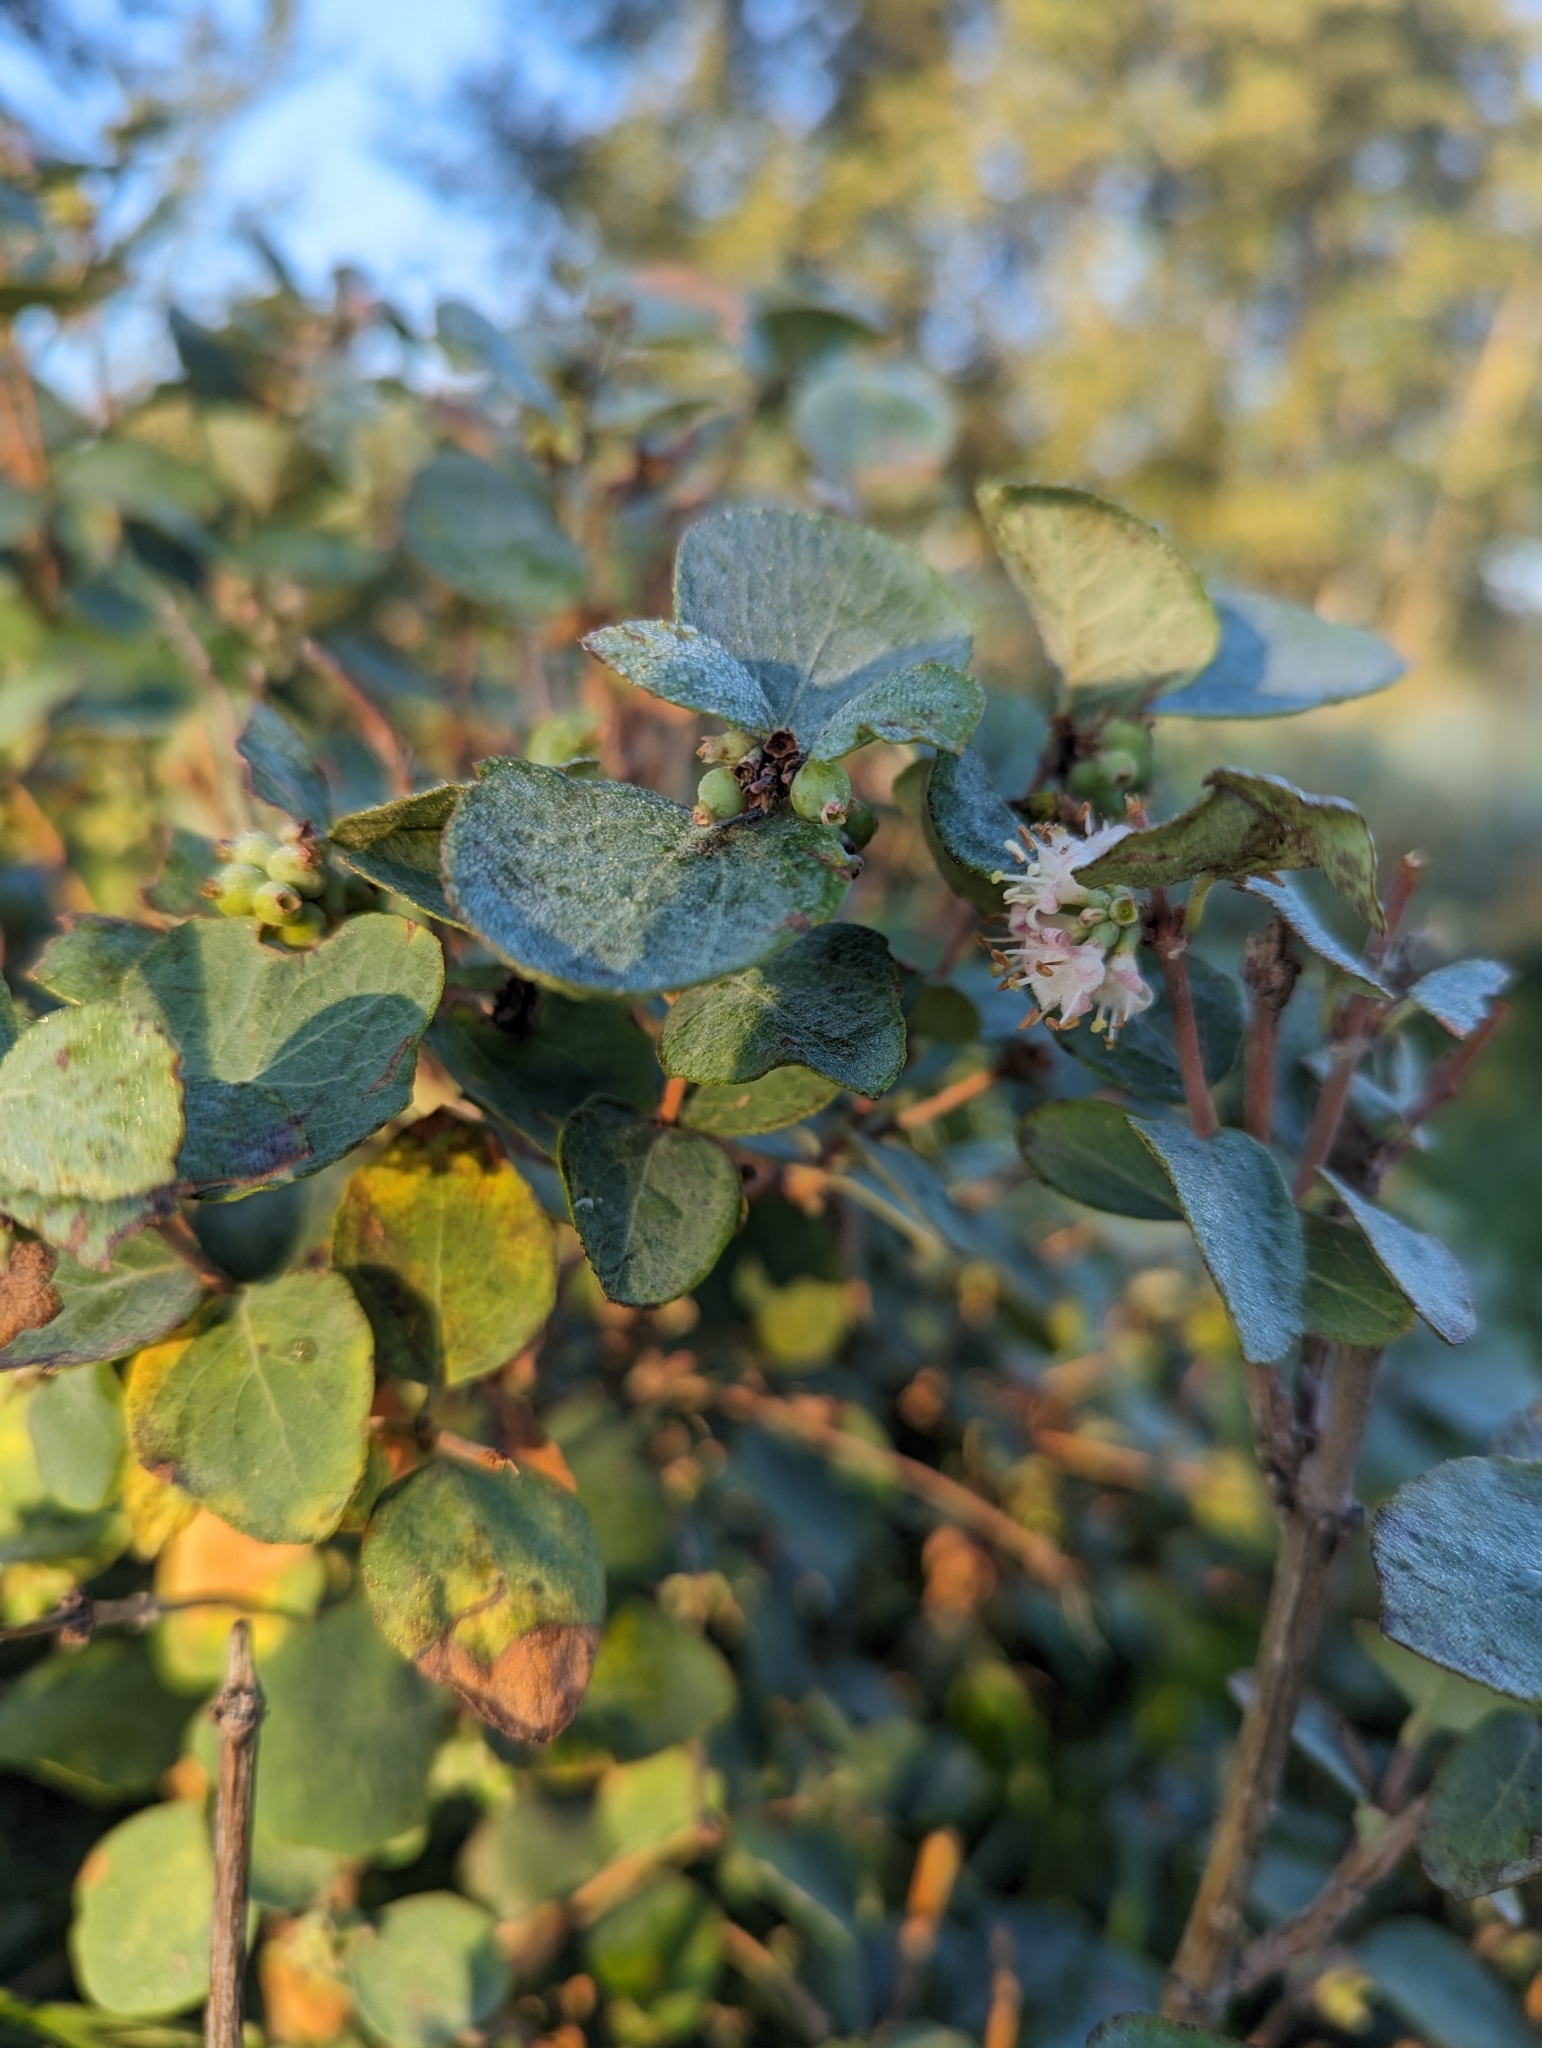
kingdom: Plantae
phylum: Tracheophyta
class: Magnoliopsida
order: Dipsacales
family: Caprifoliaceae
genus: Symphoricarpos
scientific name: Symphoricarpos occidentalis
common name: Wolfberry
